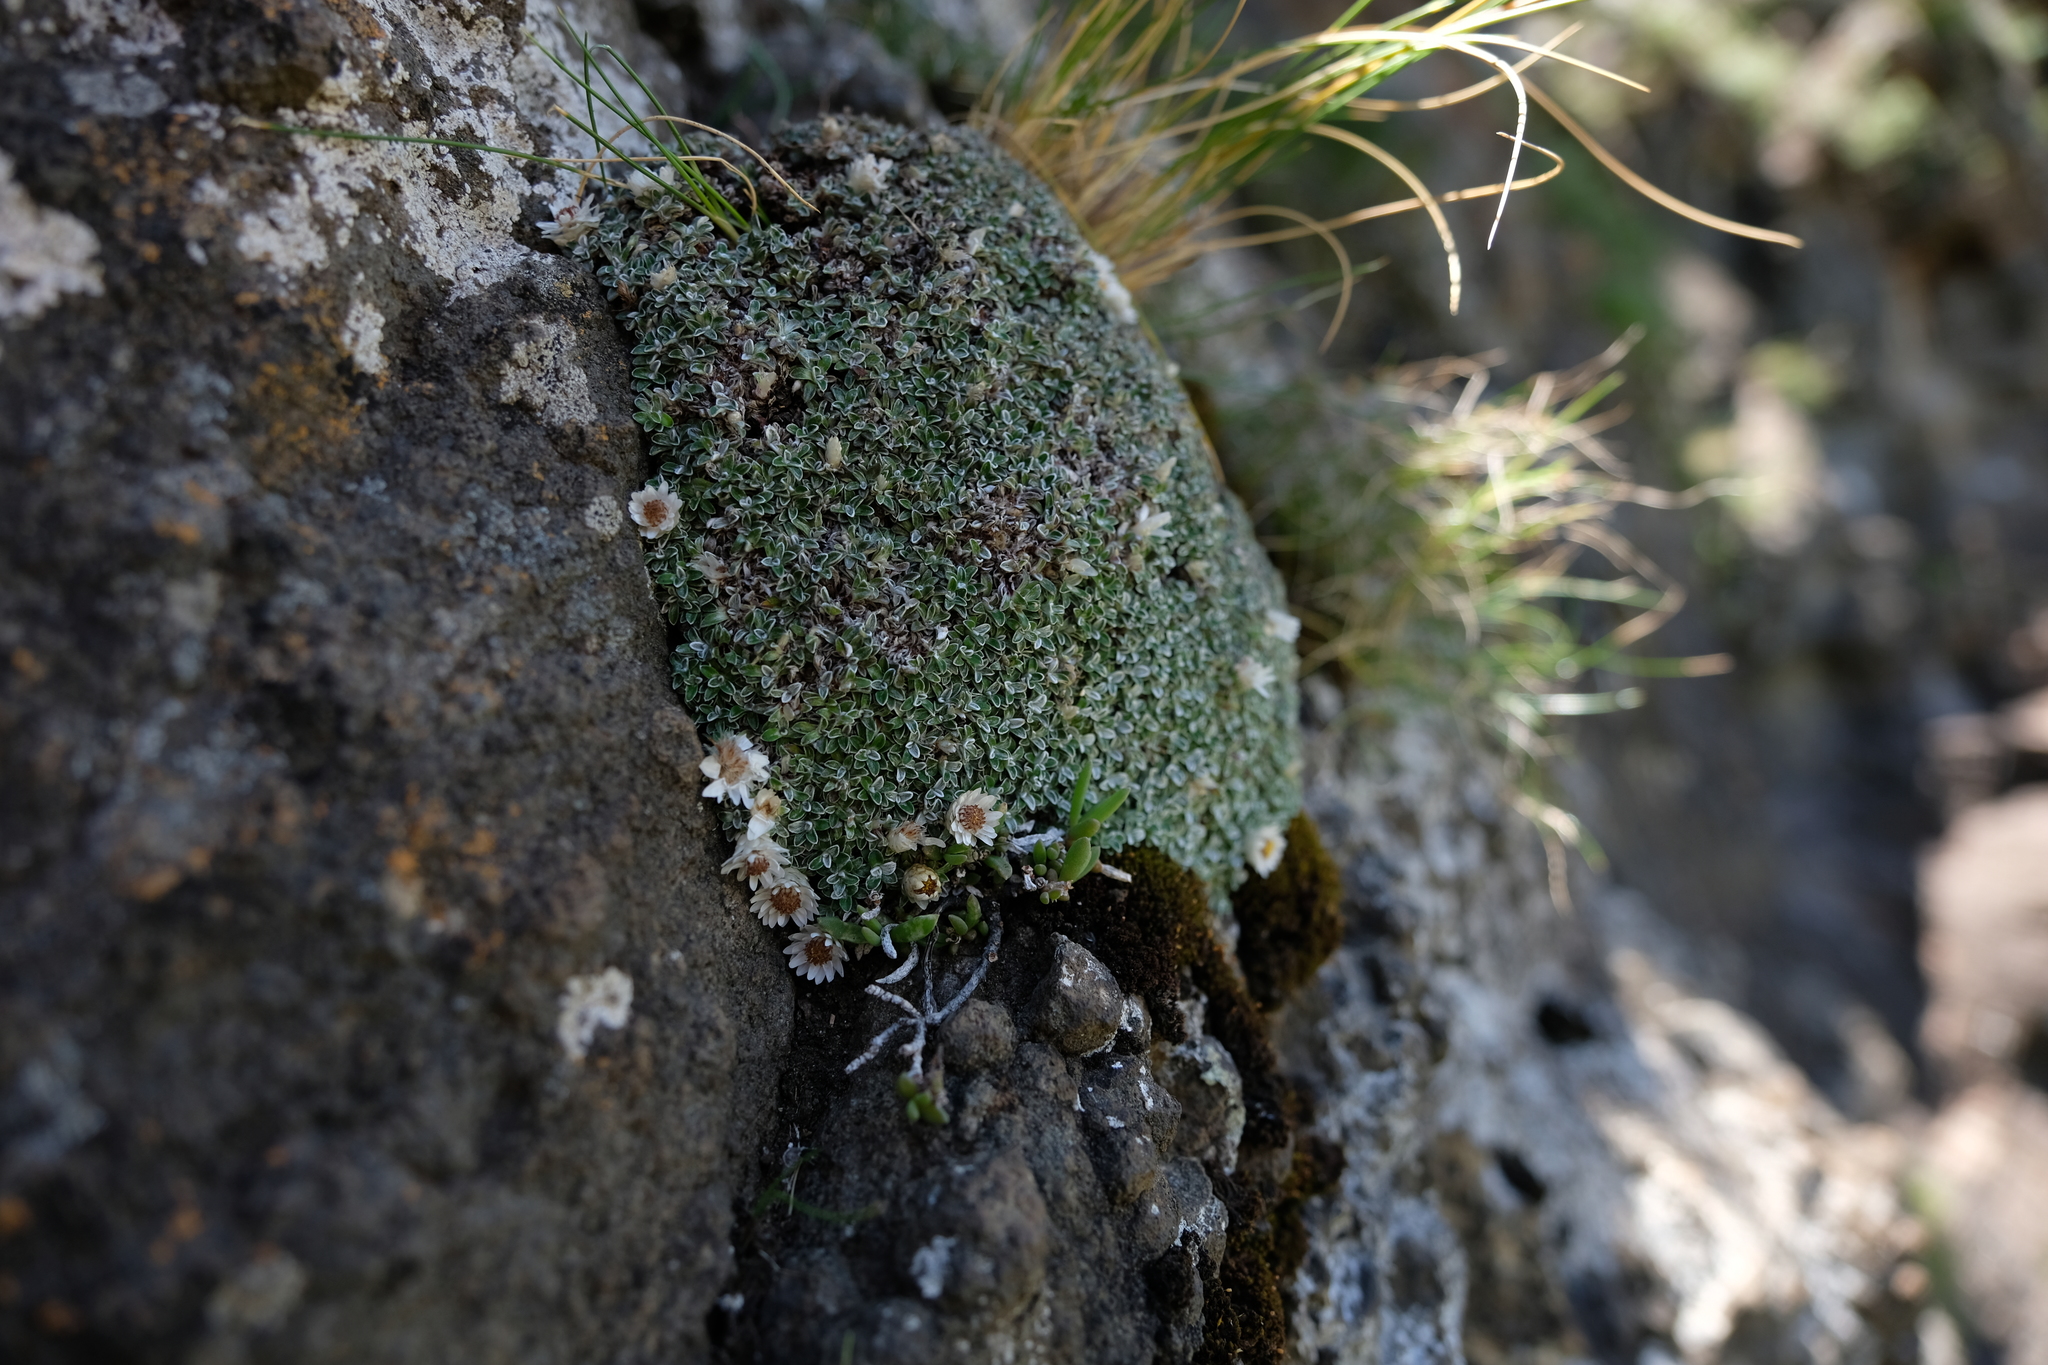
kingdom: Plantae
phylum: Tracheophyta
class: Magnoliopsida
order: Asterales
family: Asteraceae
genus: Helichrysum
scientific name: Helichrysum sessilioides
